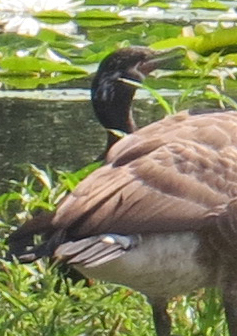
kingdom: Animalia
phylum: Chordata
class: Aves
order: Suliformes
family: Phalacrocoracidae
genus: Phalacrocorax
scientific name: Phalacrocorax brasilianus
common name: Neotropic cormorant
